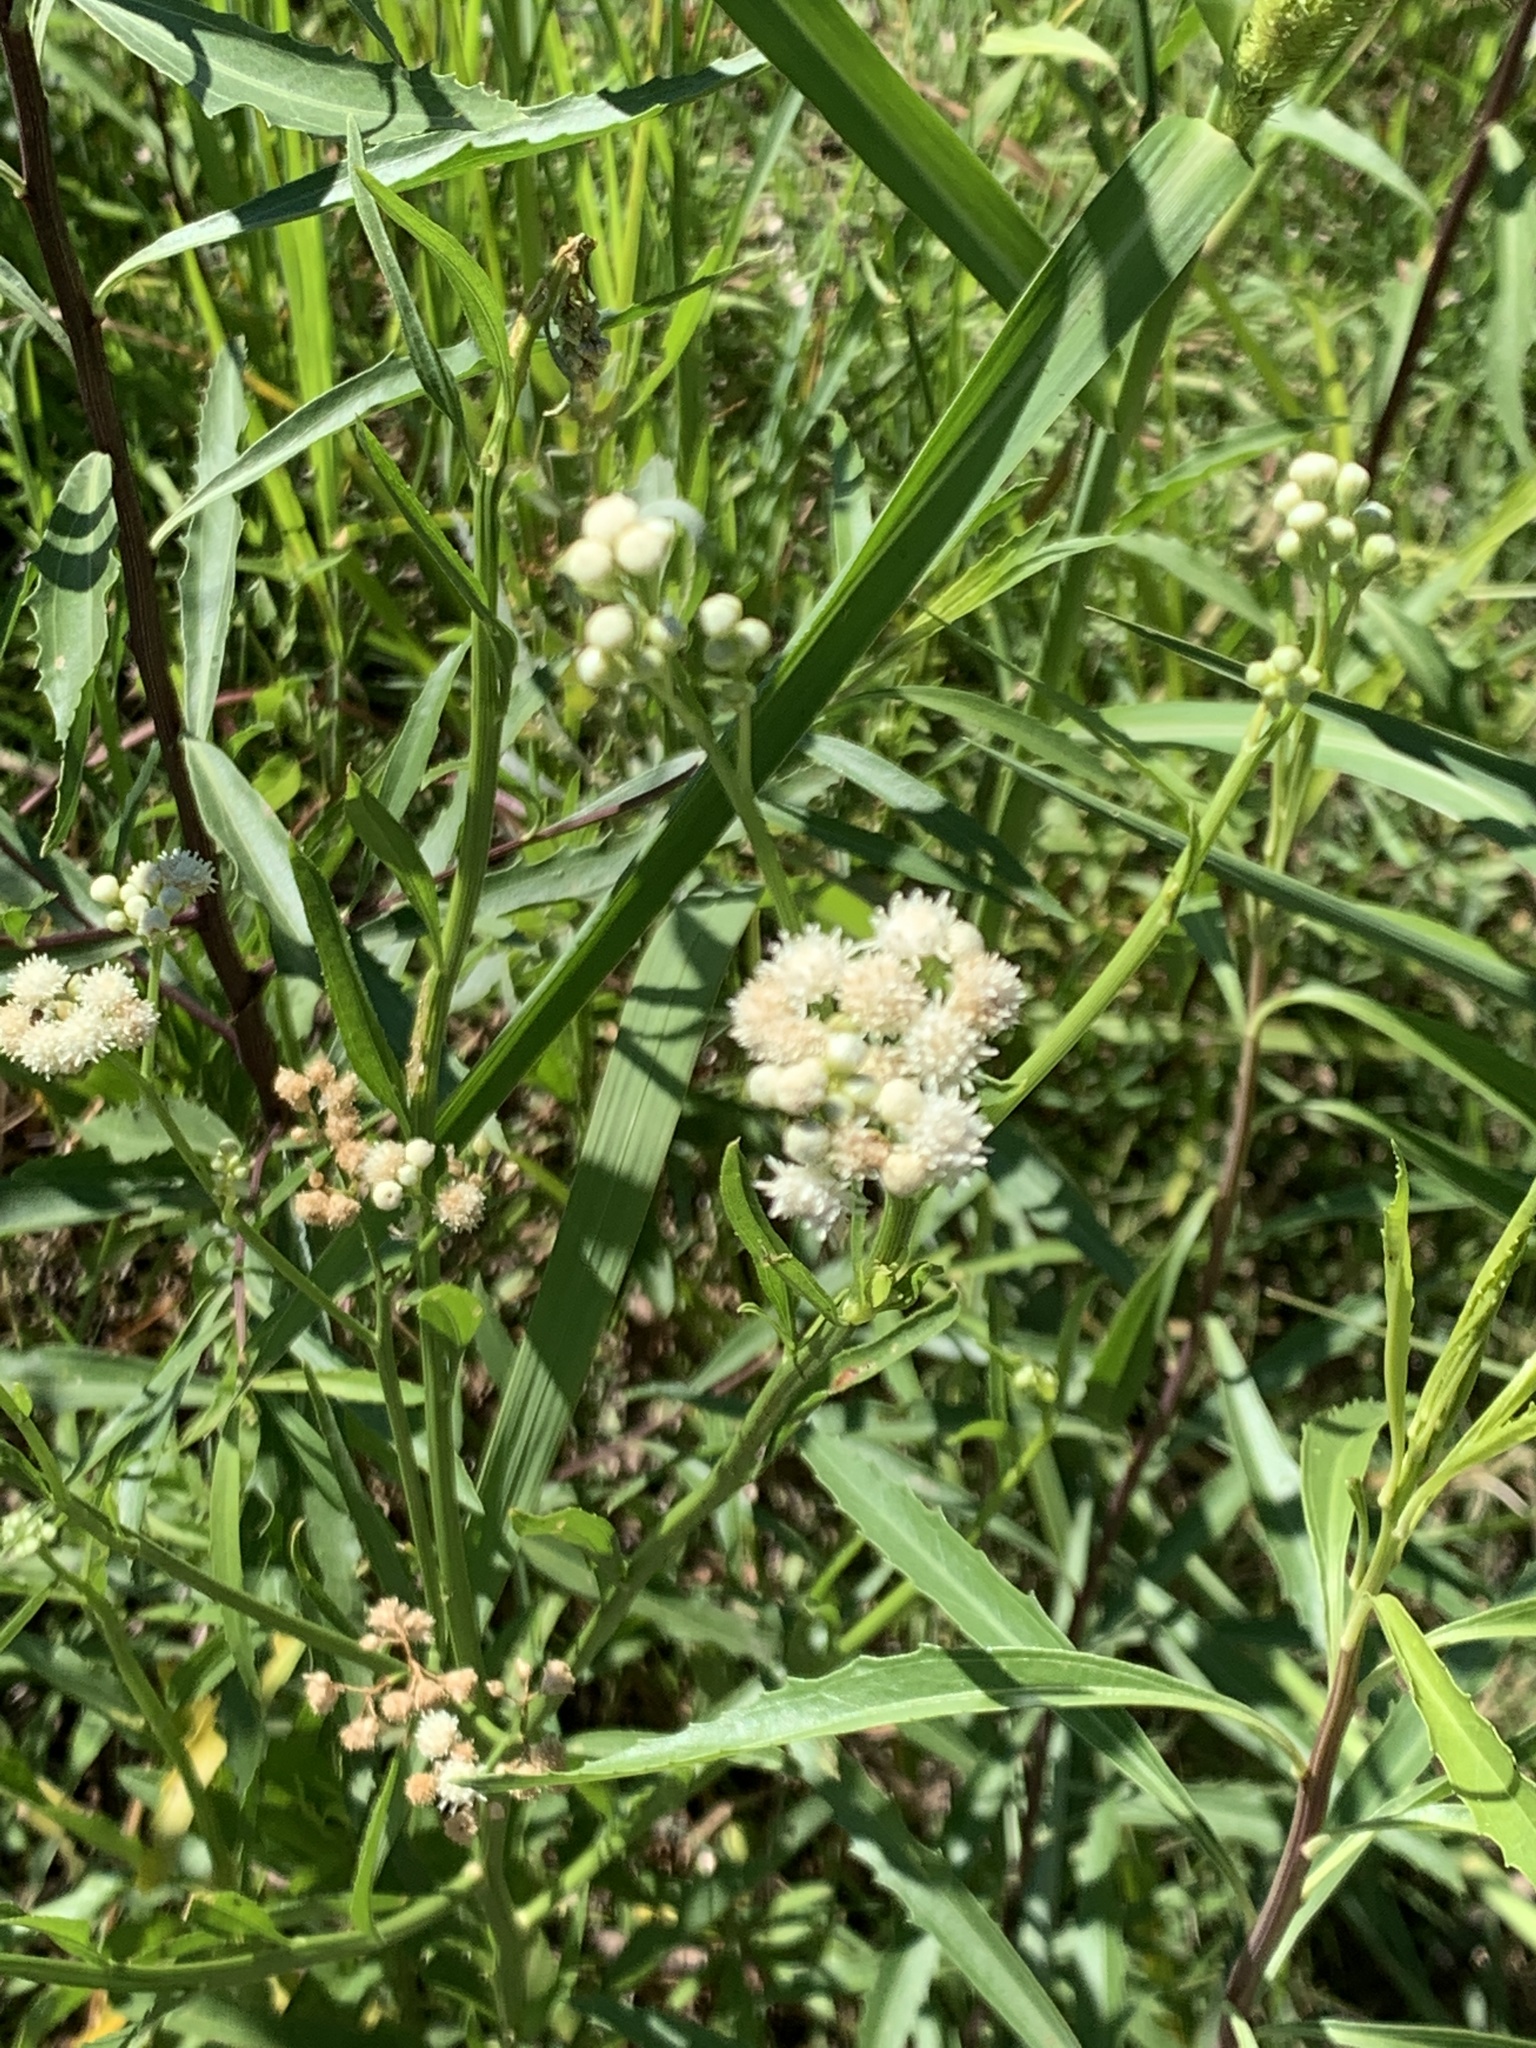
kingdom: Plantae
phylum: Tracheophyta
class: Magnoliopsida
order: Asterales
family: Asteraceae
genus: Baccharis
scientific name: Baccharis glutinosa
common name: Saltmarsh baccharis
